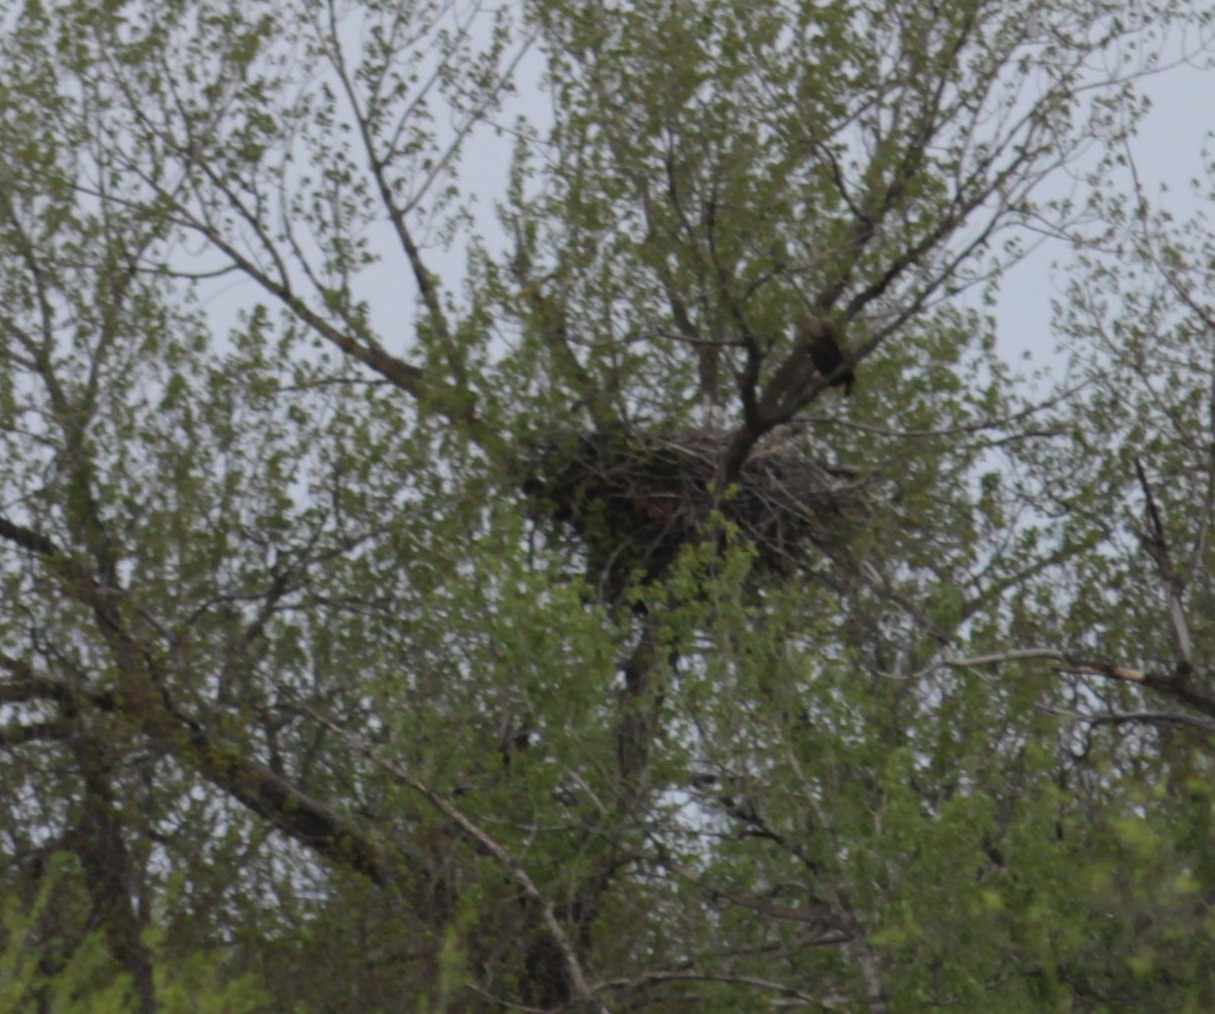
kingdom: Animalia
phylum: Chordata
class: Aves
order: Accipitriformes
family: Accipitridae
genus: Haliaeetus
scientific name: Haliaeetus albicilla
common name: White-tailed eagle
